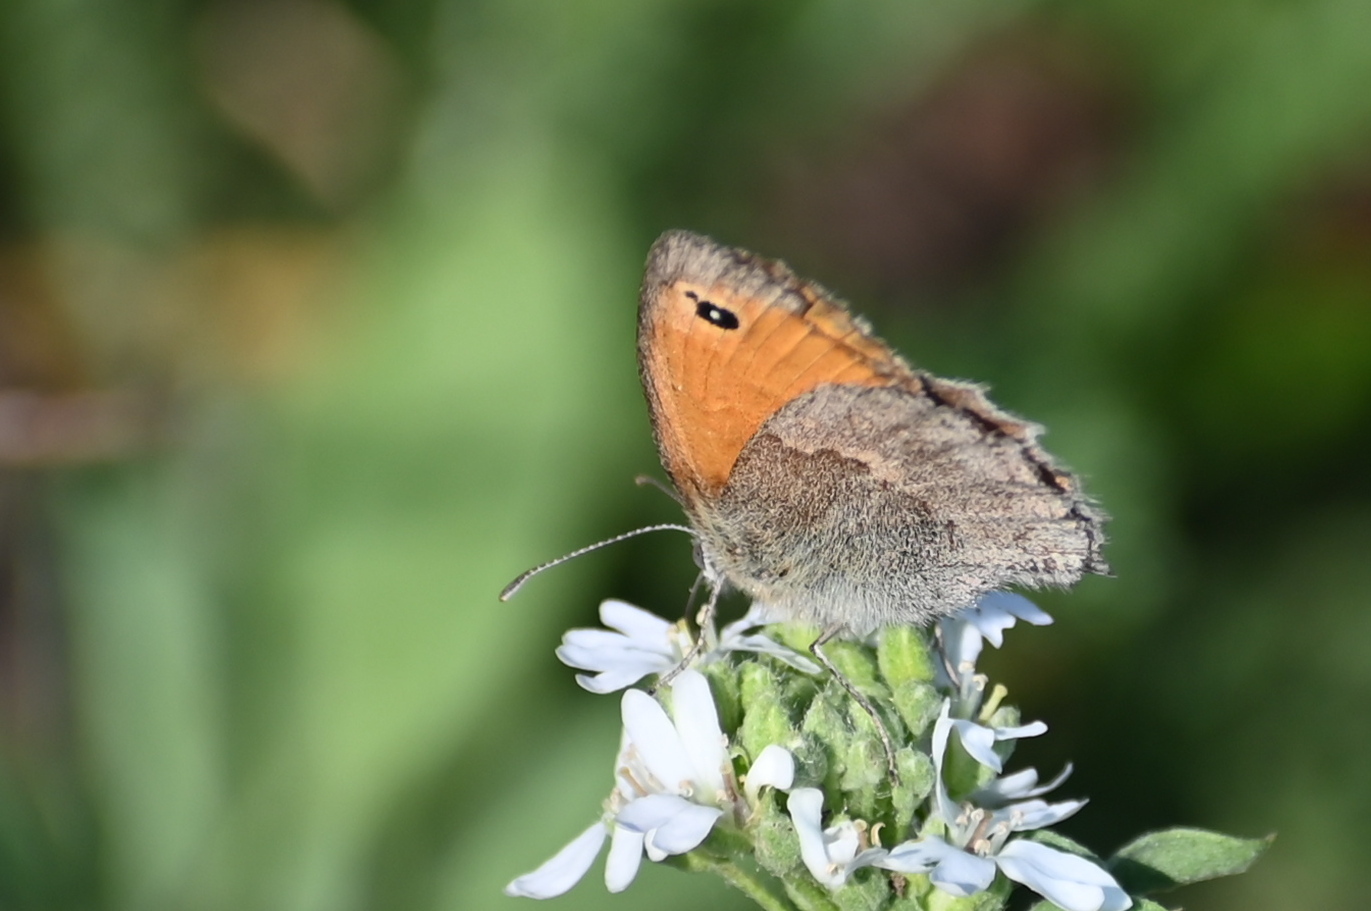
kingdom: Animalia
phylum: Arthropoda
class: Insecta
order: Lepidoptera
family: Nymphalidae
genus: Coenonympha
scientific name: Coenonympha pamphilus
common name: Small heath
